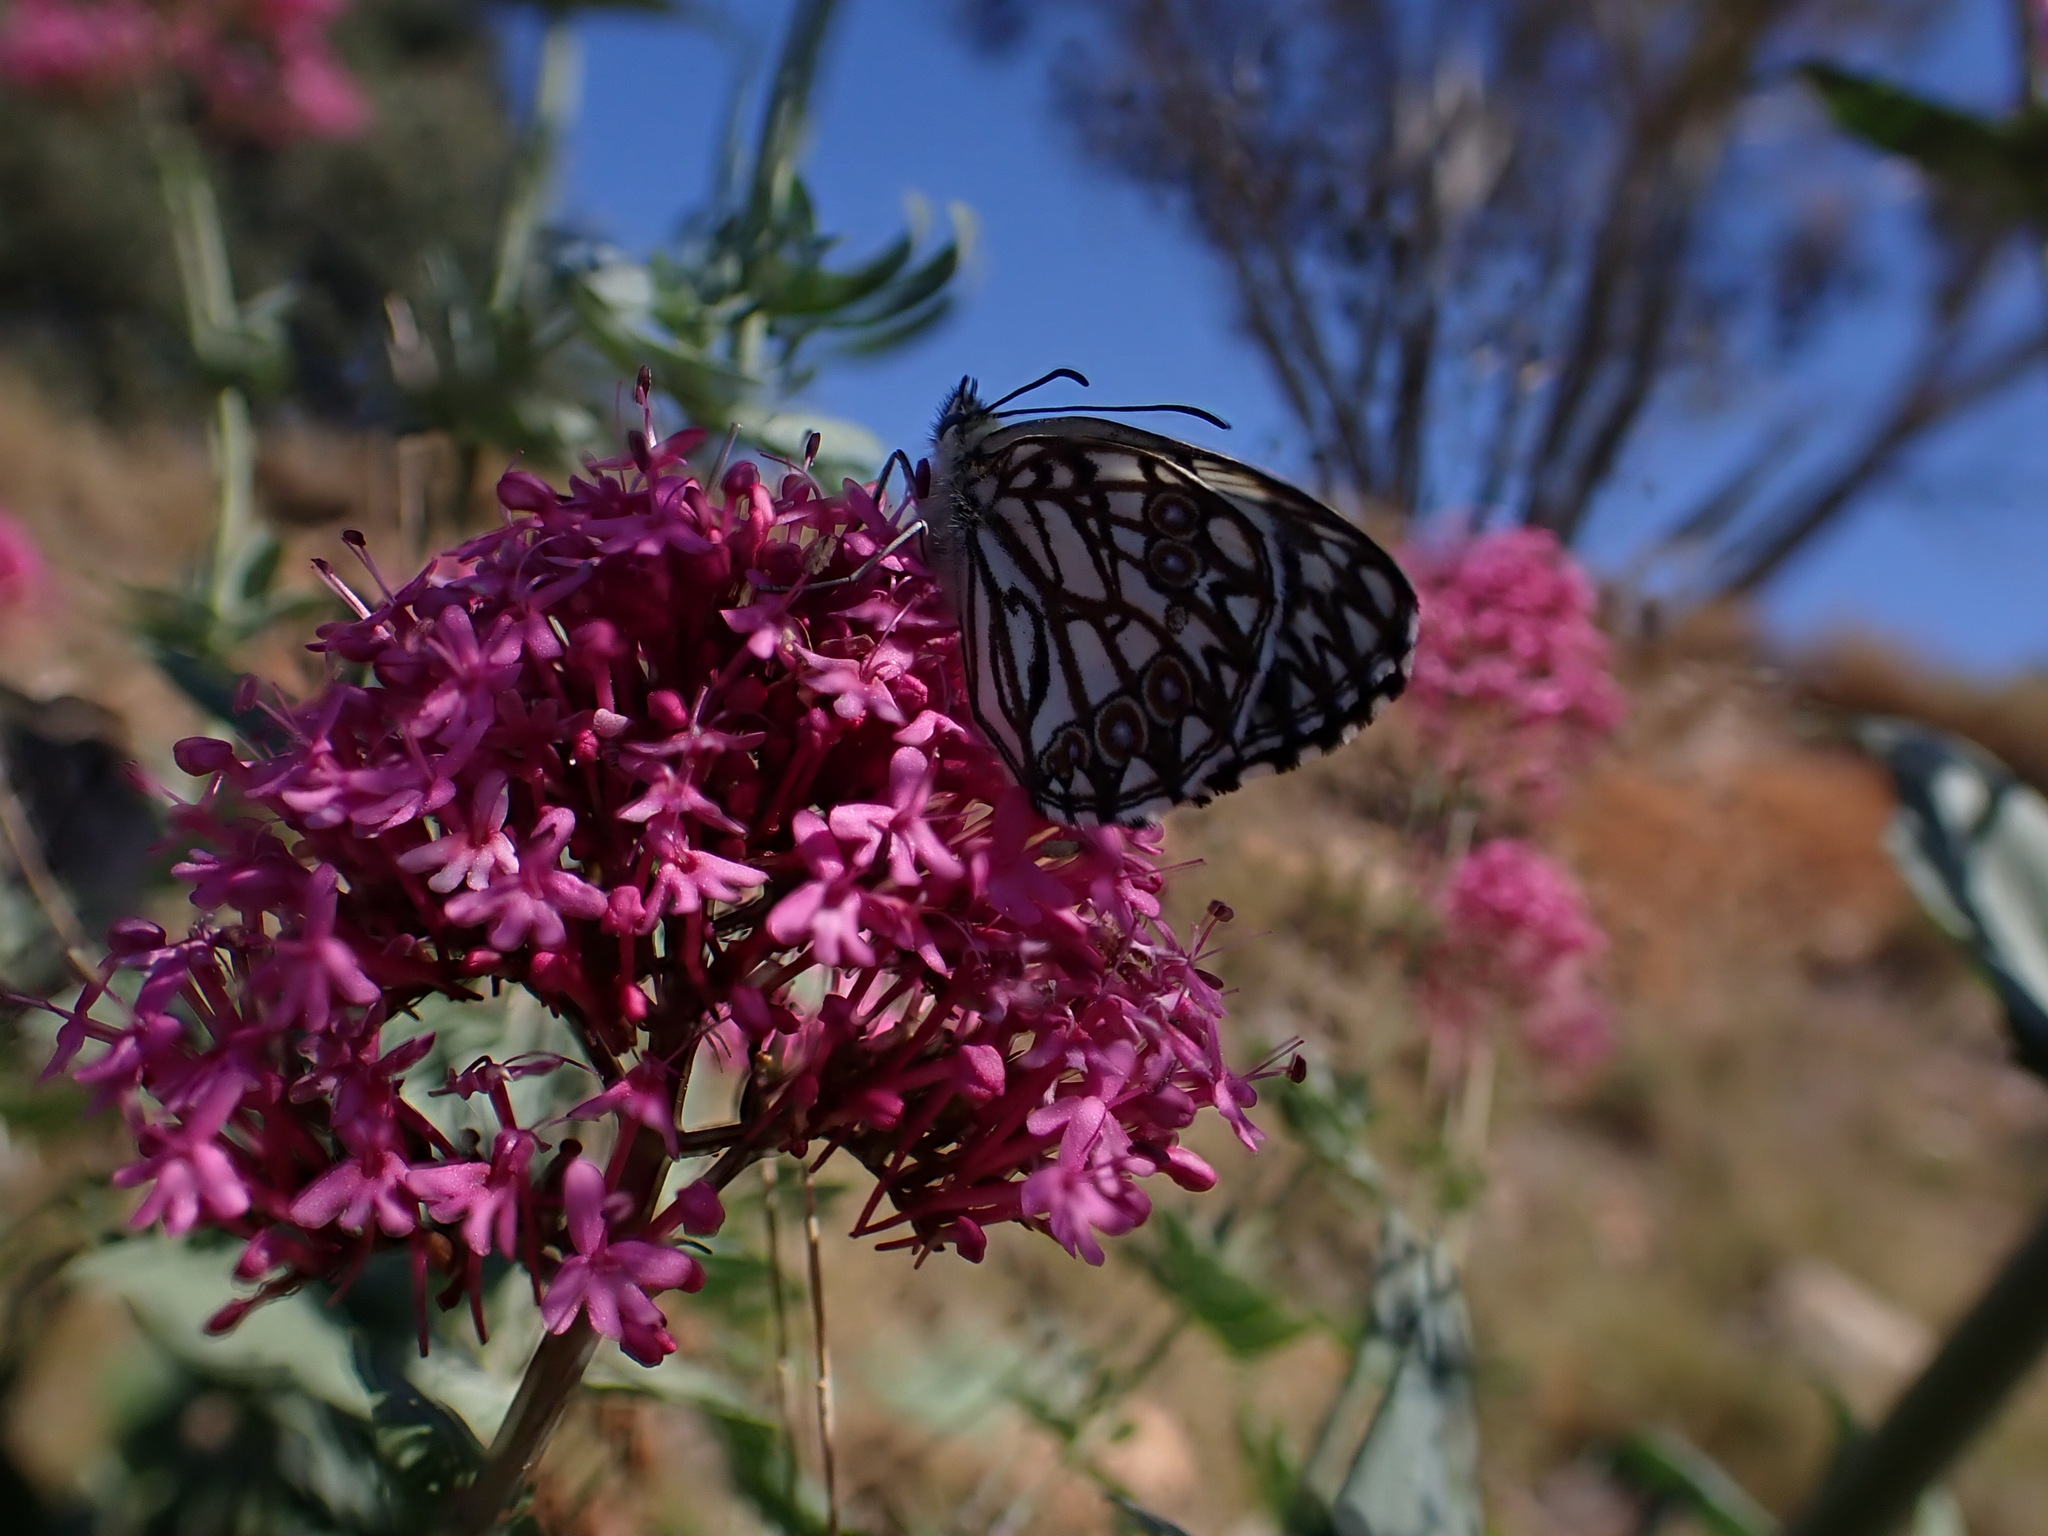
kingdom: Animalia
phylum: Arthropoda
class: Insecta
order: Lepidoptera
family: Nymphalidae
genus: Melanargia
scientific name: Melanargia occitanica
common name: Western marbled white
